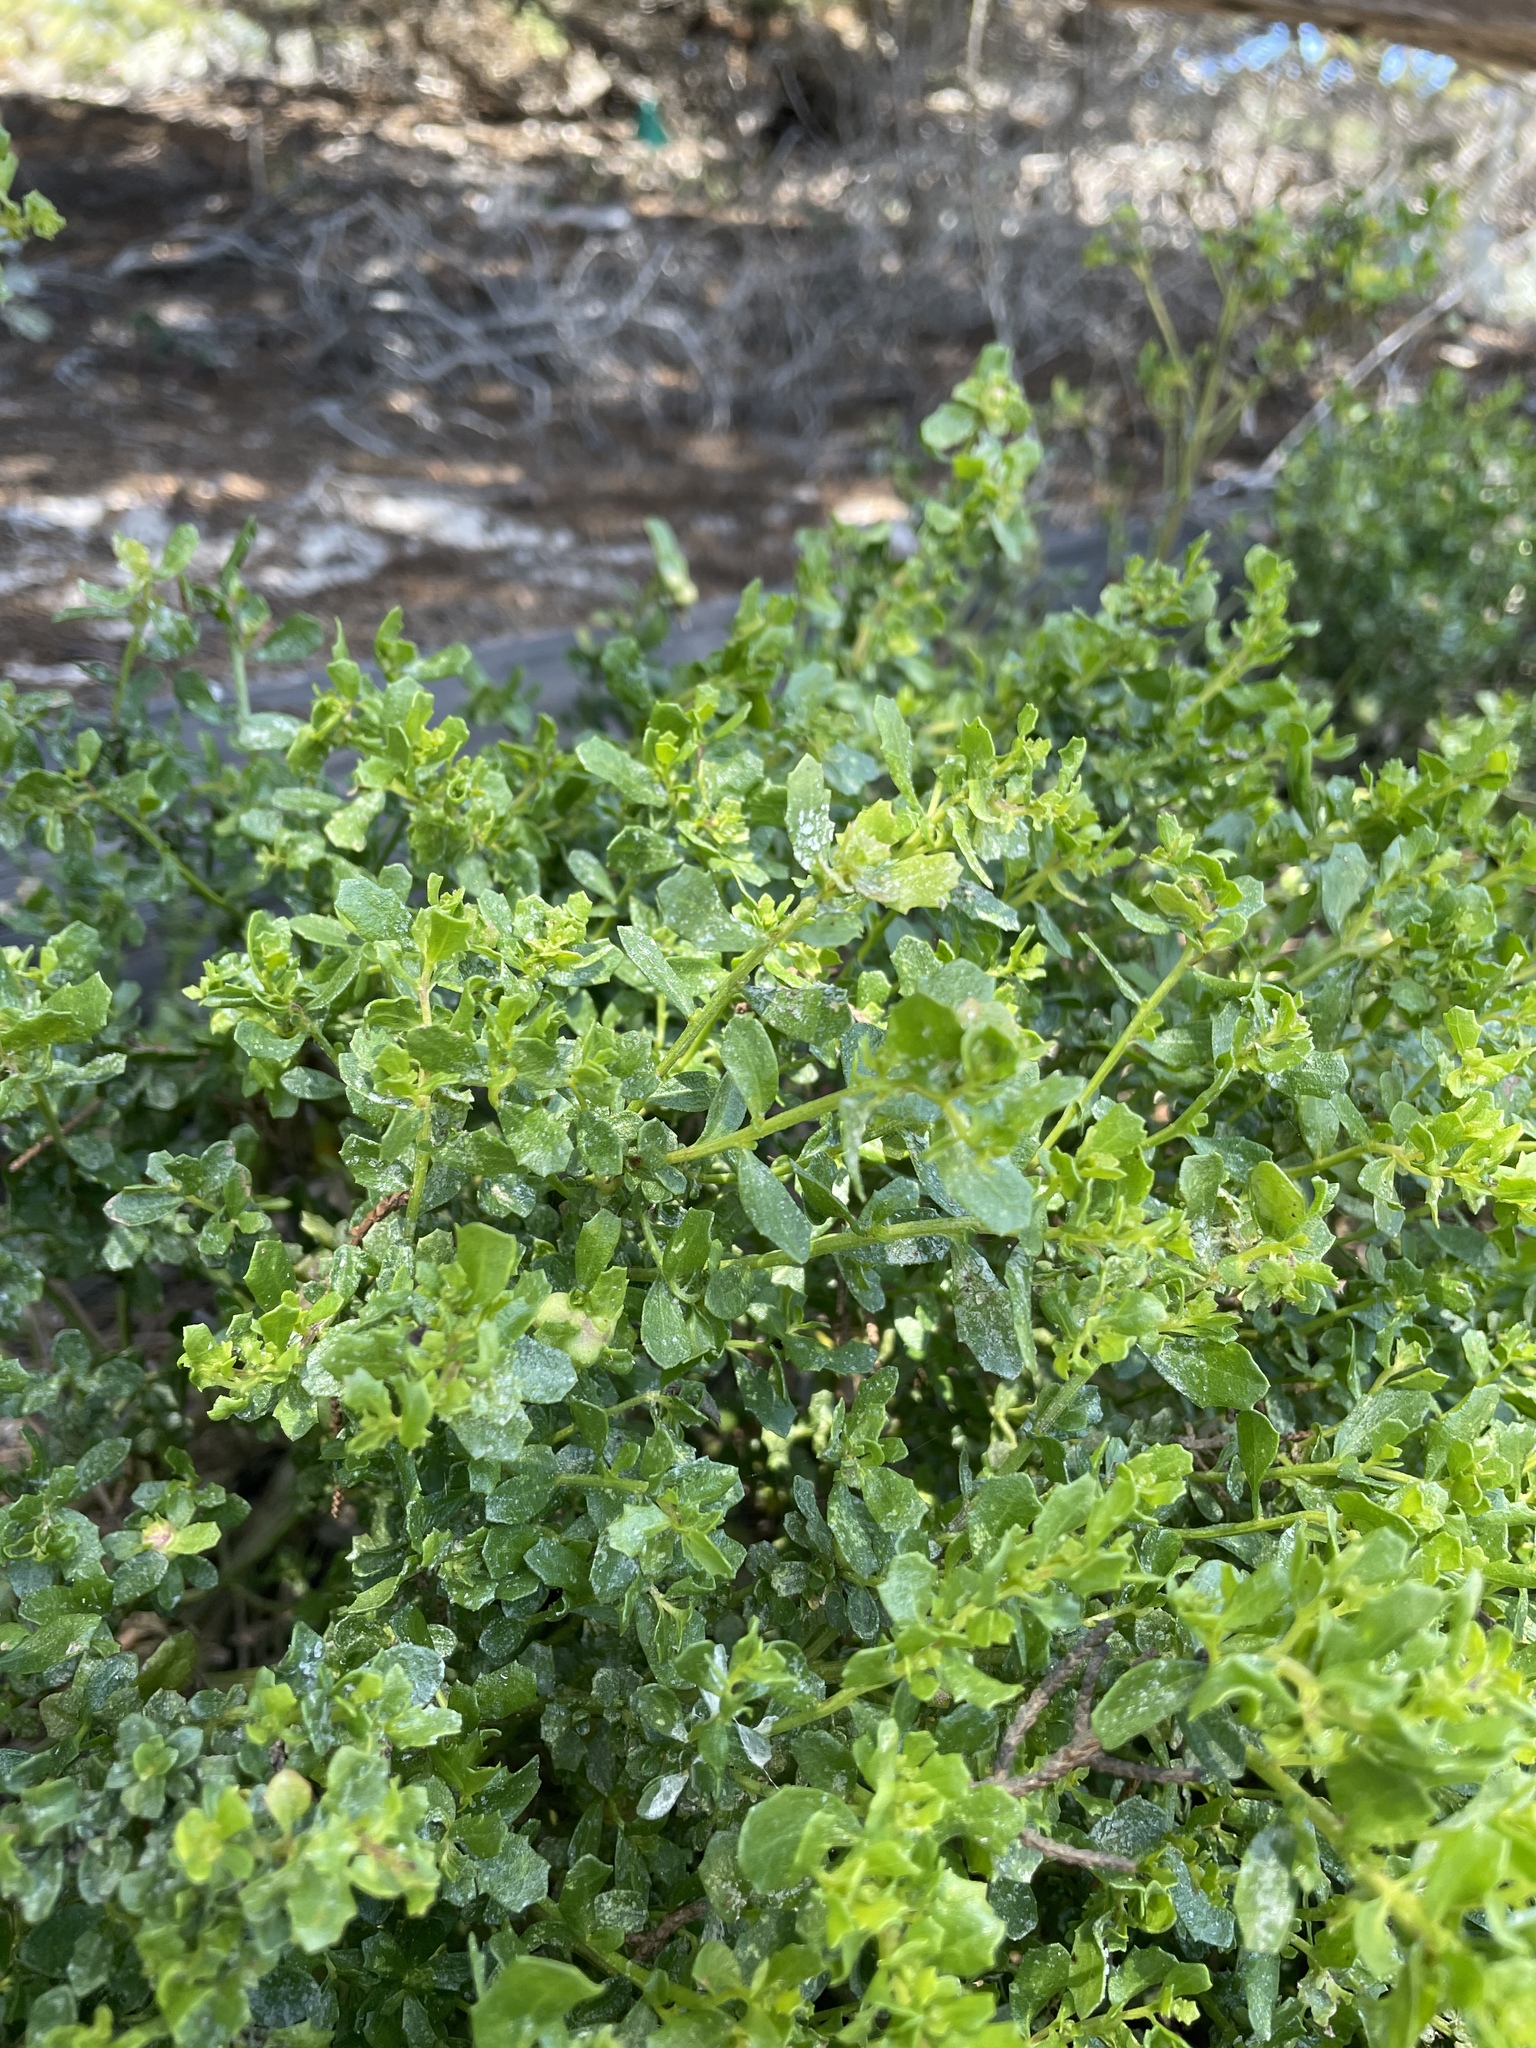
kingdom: Plantae
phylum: Tracheophyta
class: Magnoliopsida
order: Asterales
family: Asteraceae
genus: Baccharis
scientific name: Baccharis pilularis
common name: Coyotebrush
